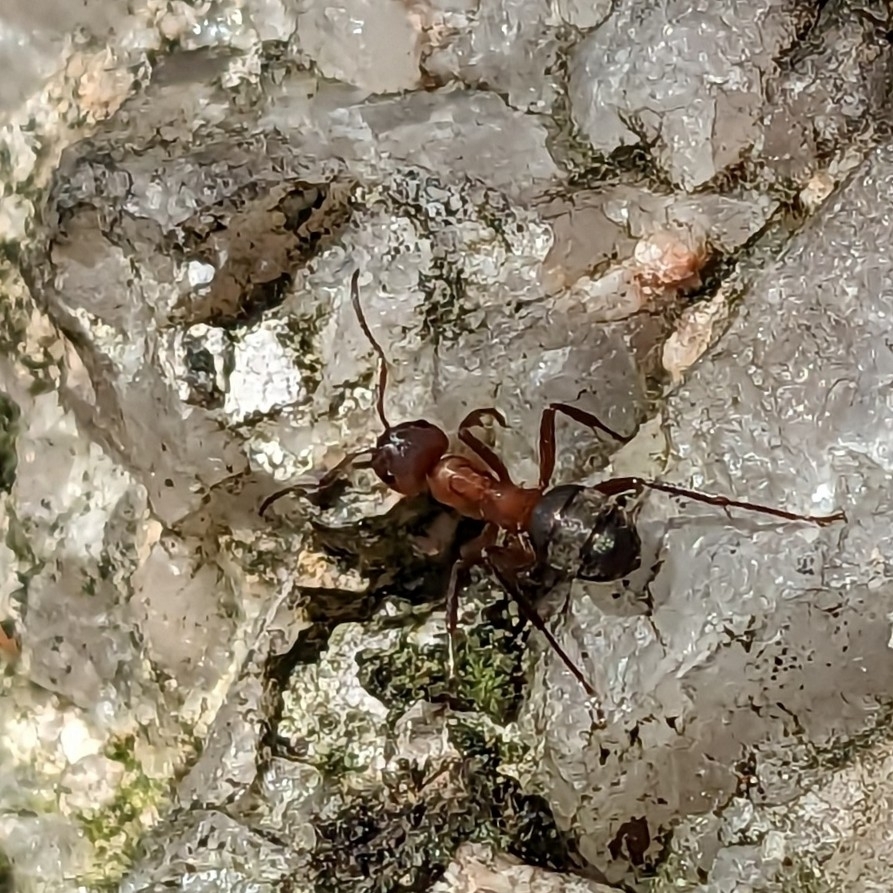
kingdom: Animalia
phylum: Arthropoda
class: Insecta
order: Hymenoptera
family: Formicidae
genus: Formica
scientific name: Formica sanguinea
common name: Blood-red ant
